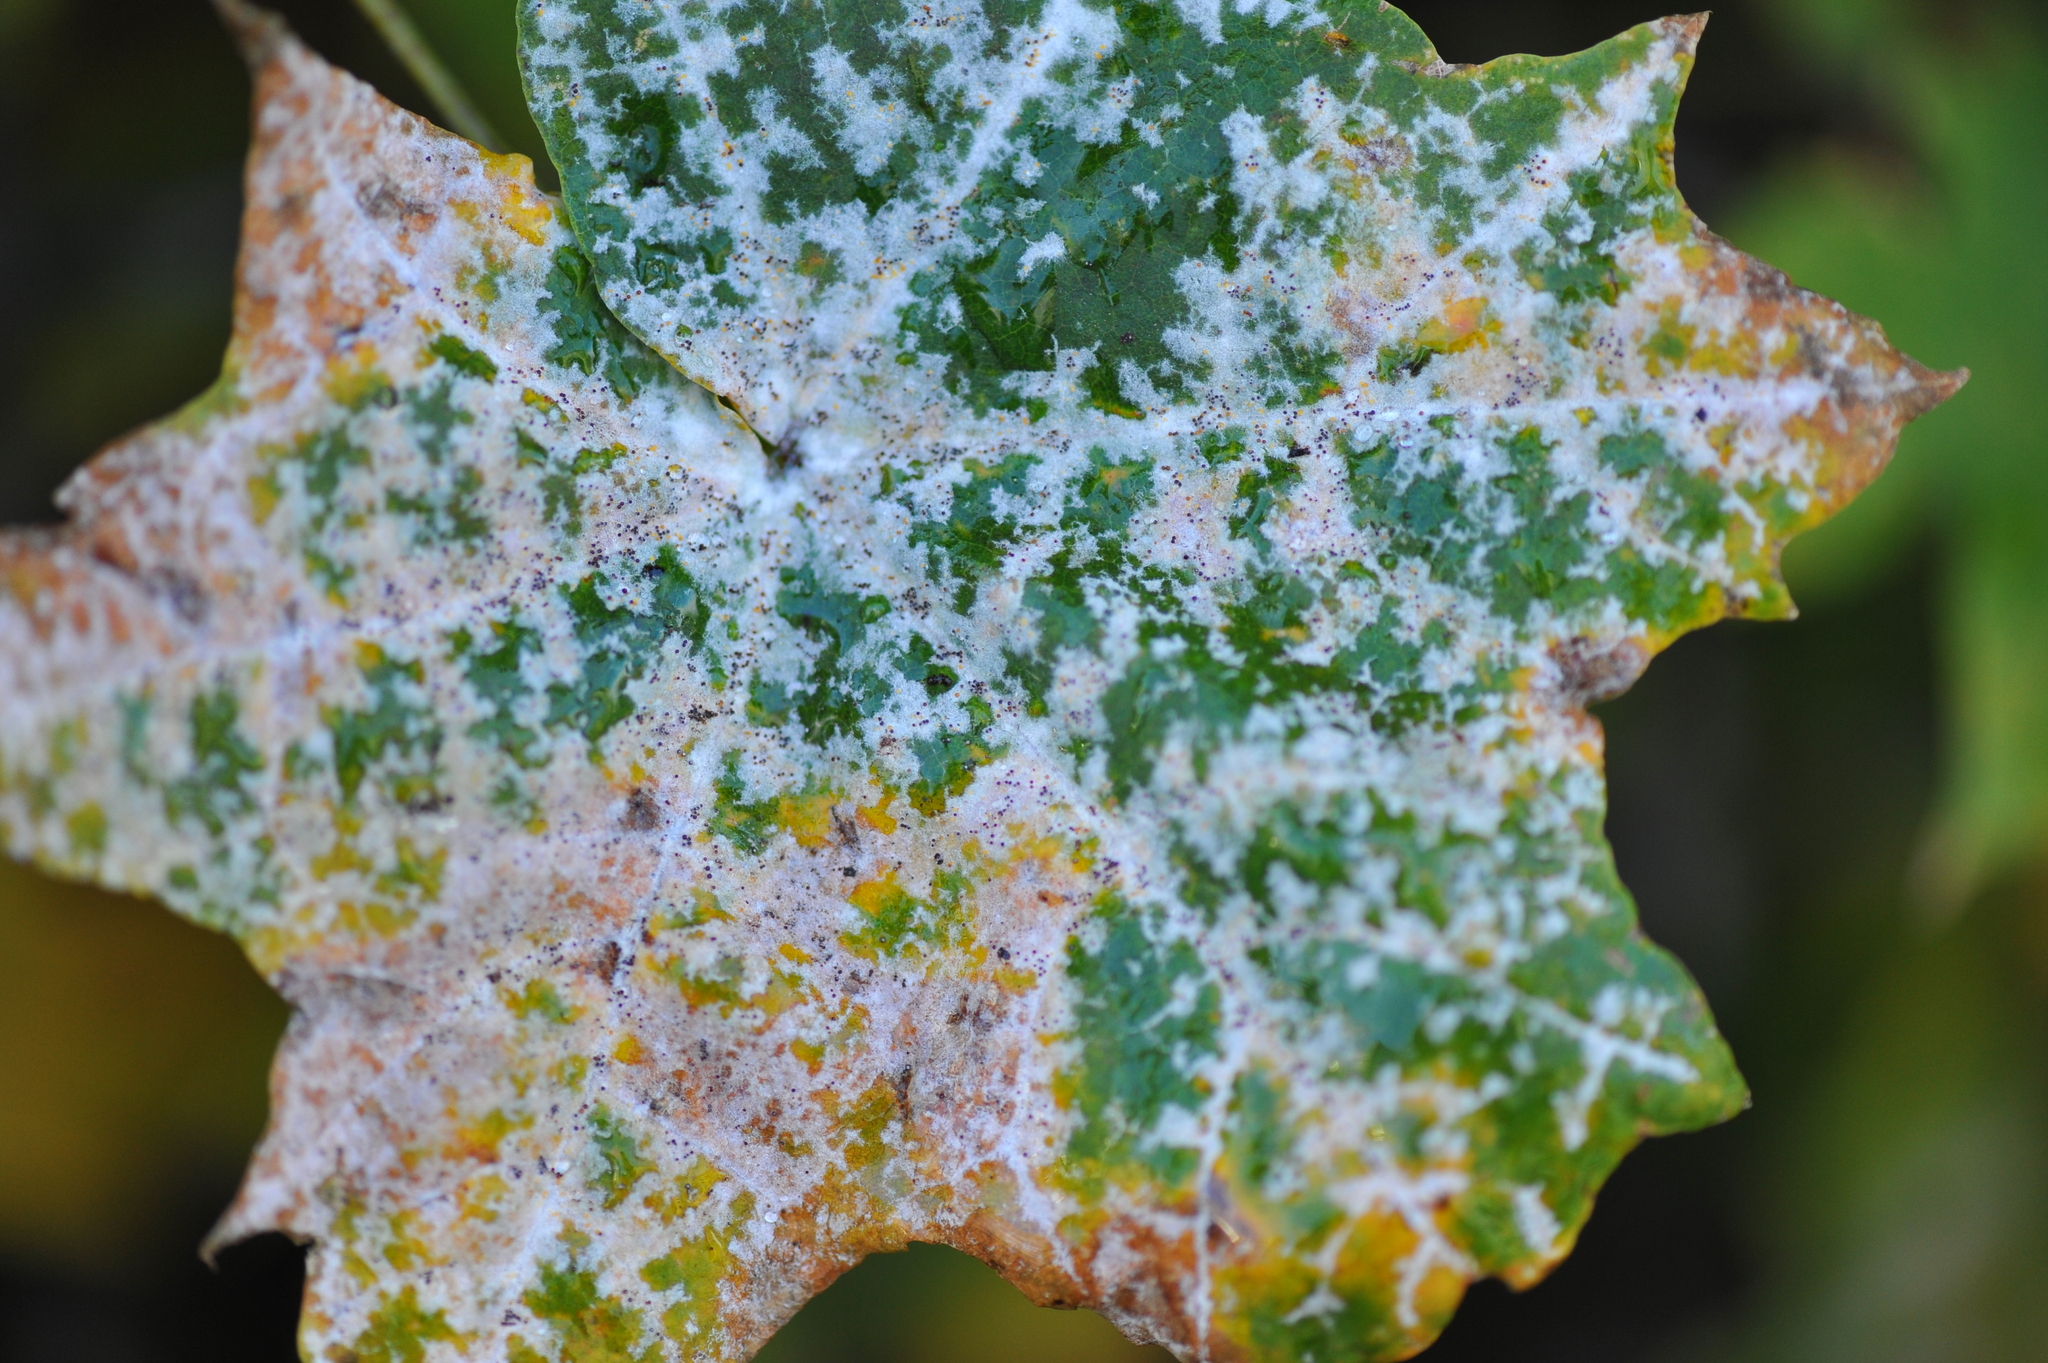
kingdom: Fungi
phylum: Ascomycota
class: Leotiomycetes
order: Helotiales
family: Erysiphaceae
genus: Sawadaea
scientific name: Sawadaea tulasnei
